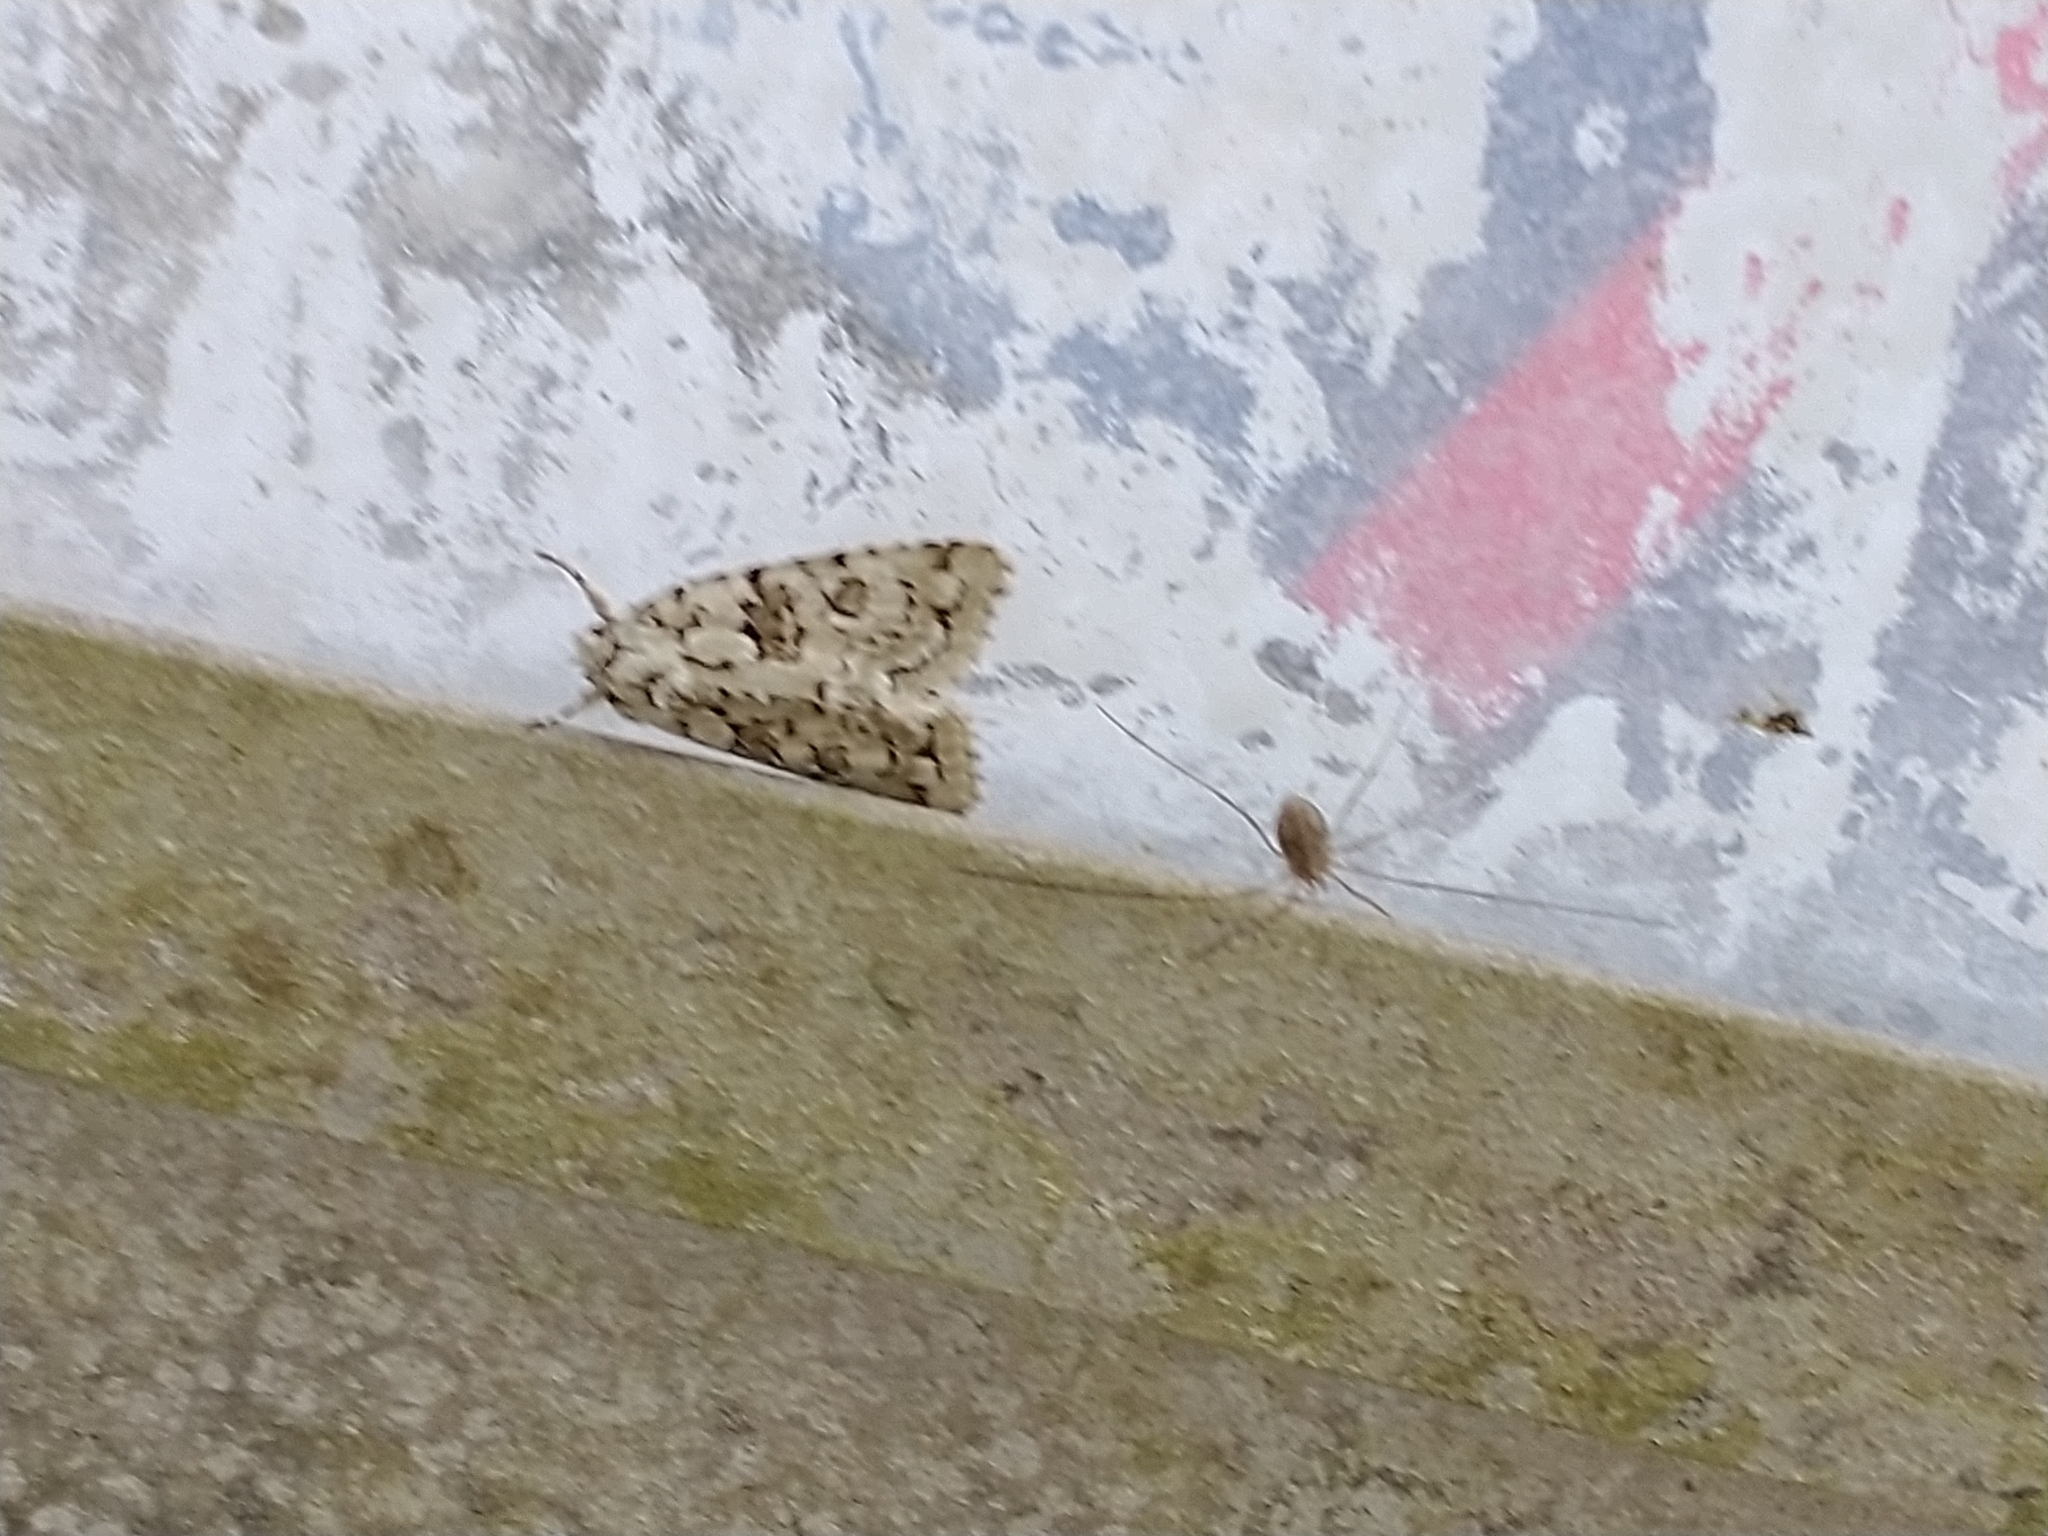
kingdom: Animalia
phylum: Arthropoda
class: Insecta
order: Lepidoptera
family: Noctuidae
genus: Nyctobrya
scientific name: Nyctobrya muralis
